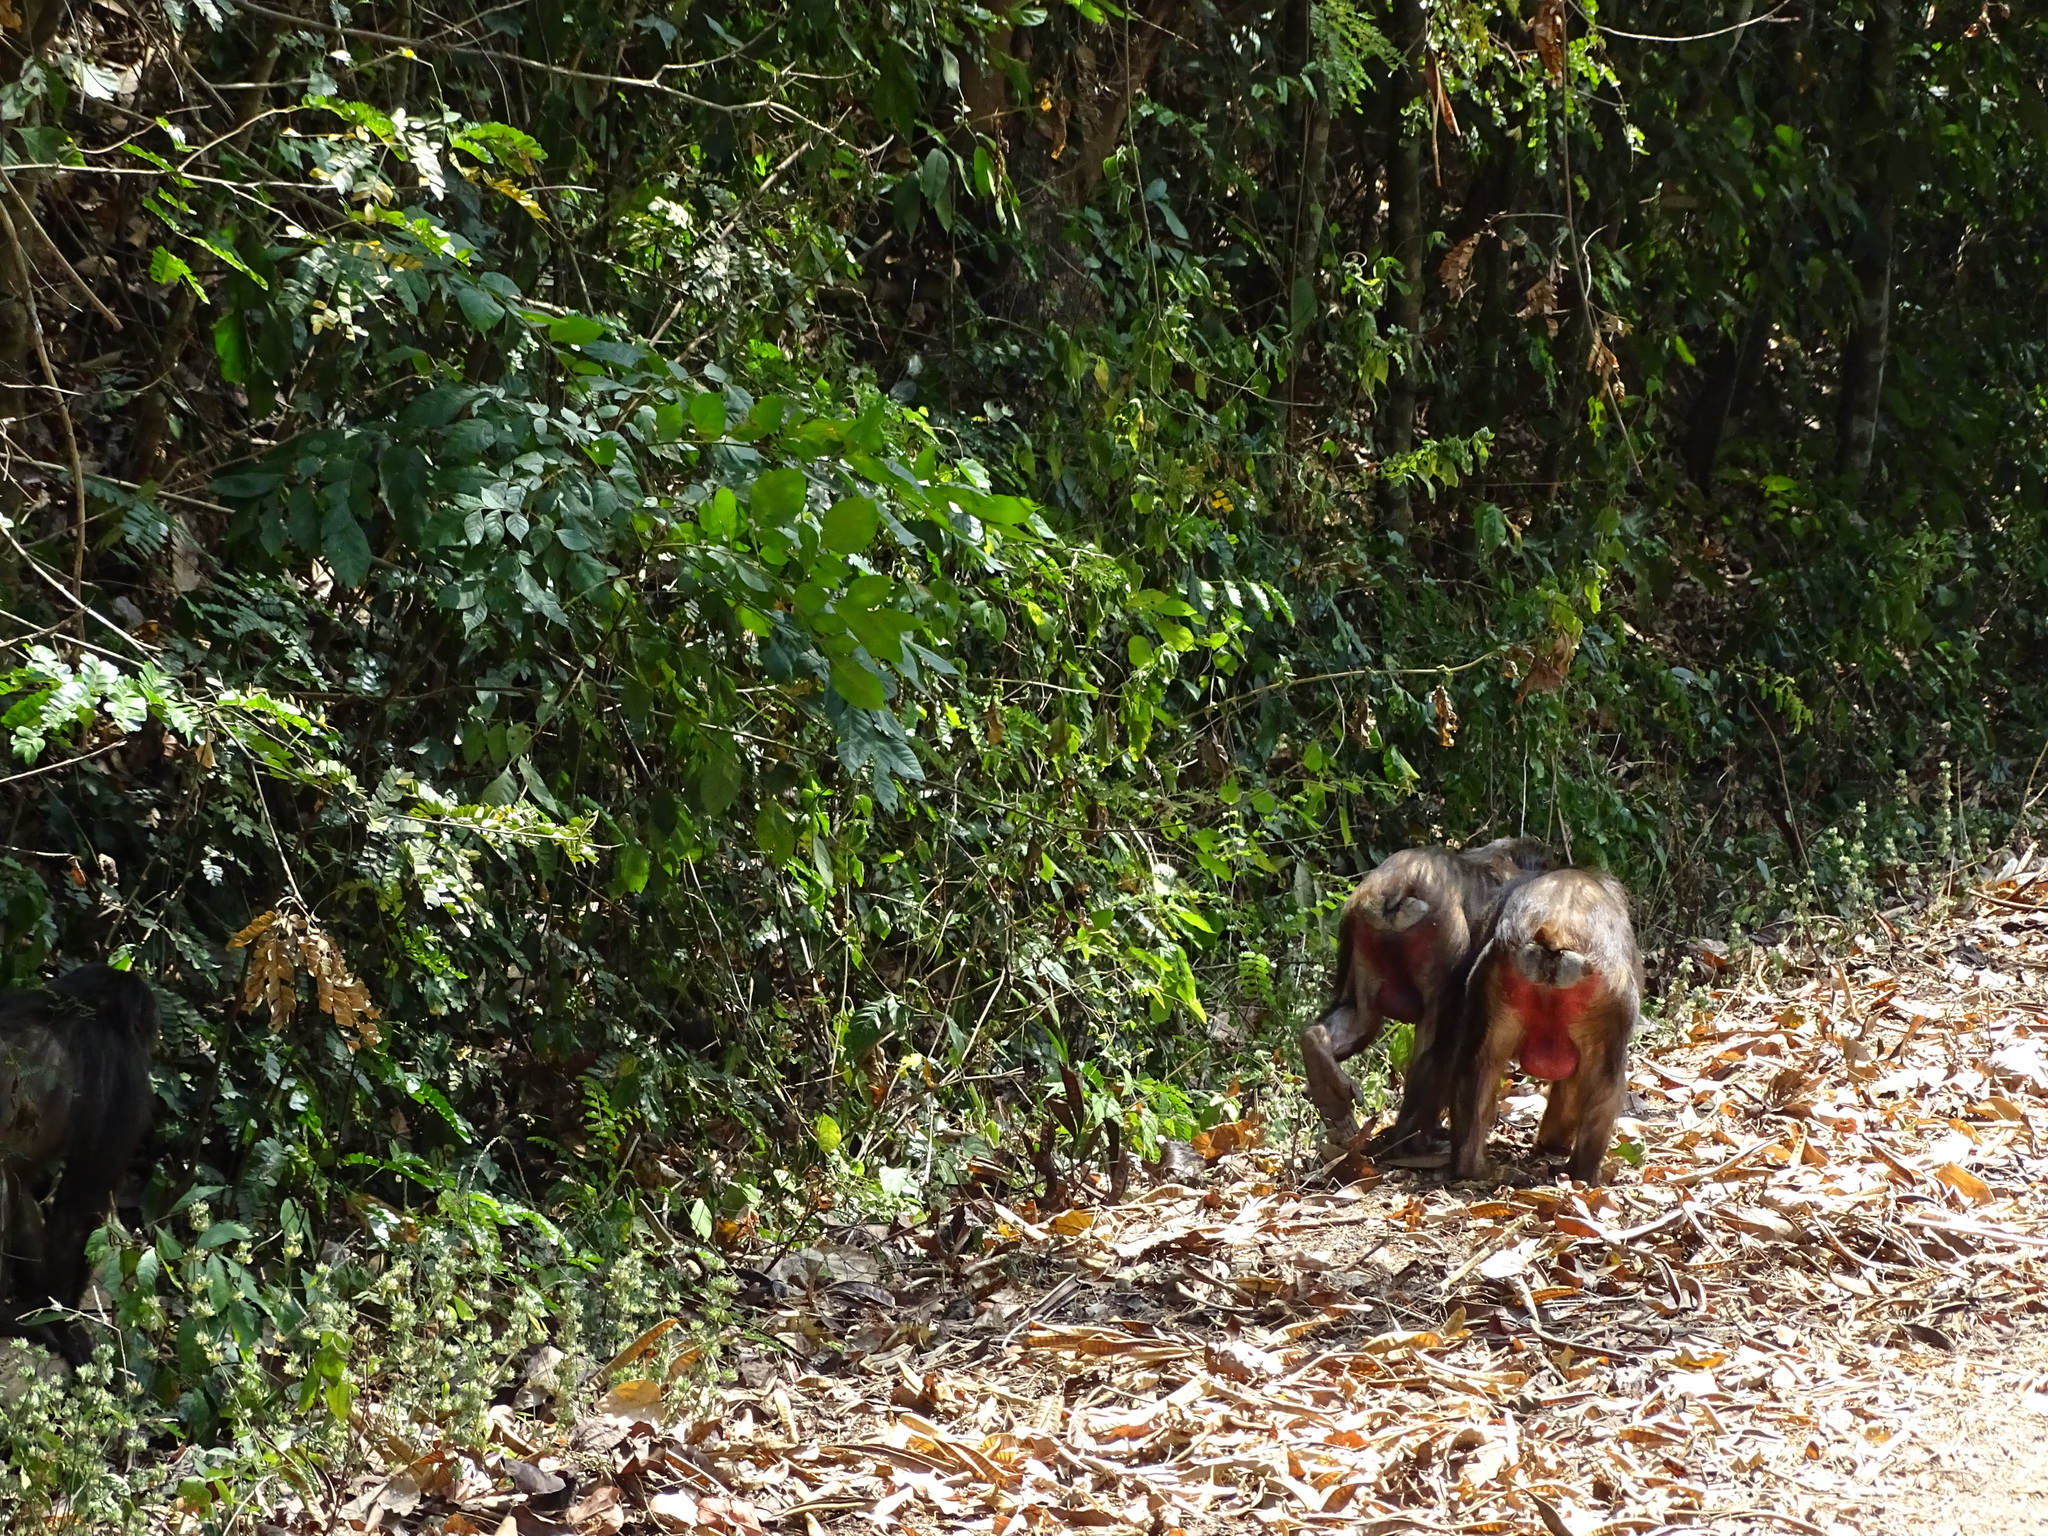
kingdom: Animalia
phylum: Chordata
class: Mammalia
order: Primates
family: Cercopithecidae
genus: Macaca
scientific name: Macaca arctoides
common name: Stump-tailed macaque
